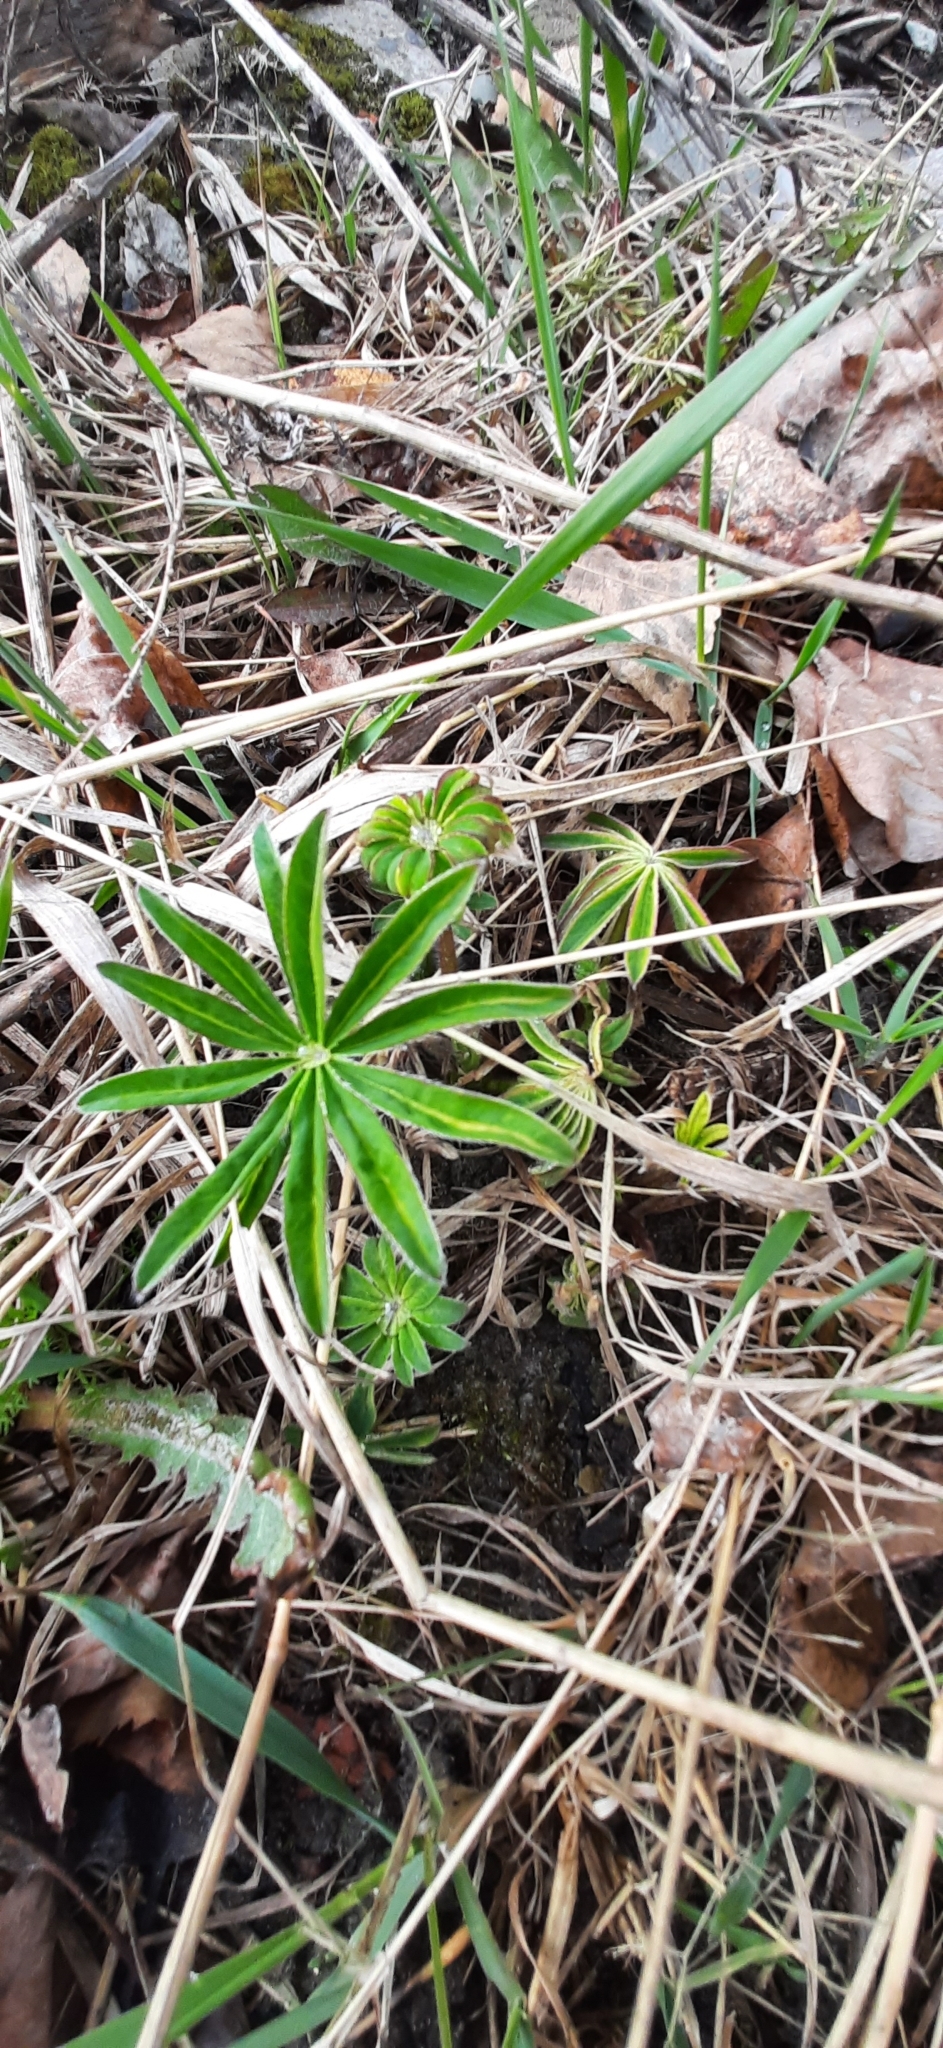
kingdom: Plantae
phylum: Tracheophyta
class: Magnoliopsida
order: Fabales
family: Fabaceae
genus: Lupinus
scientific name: Lupinus polyphyllus
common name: Garden lupin
